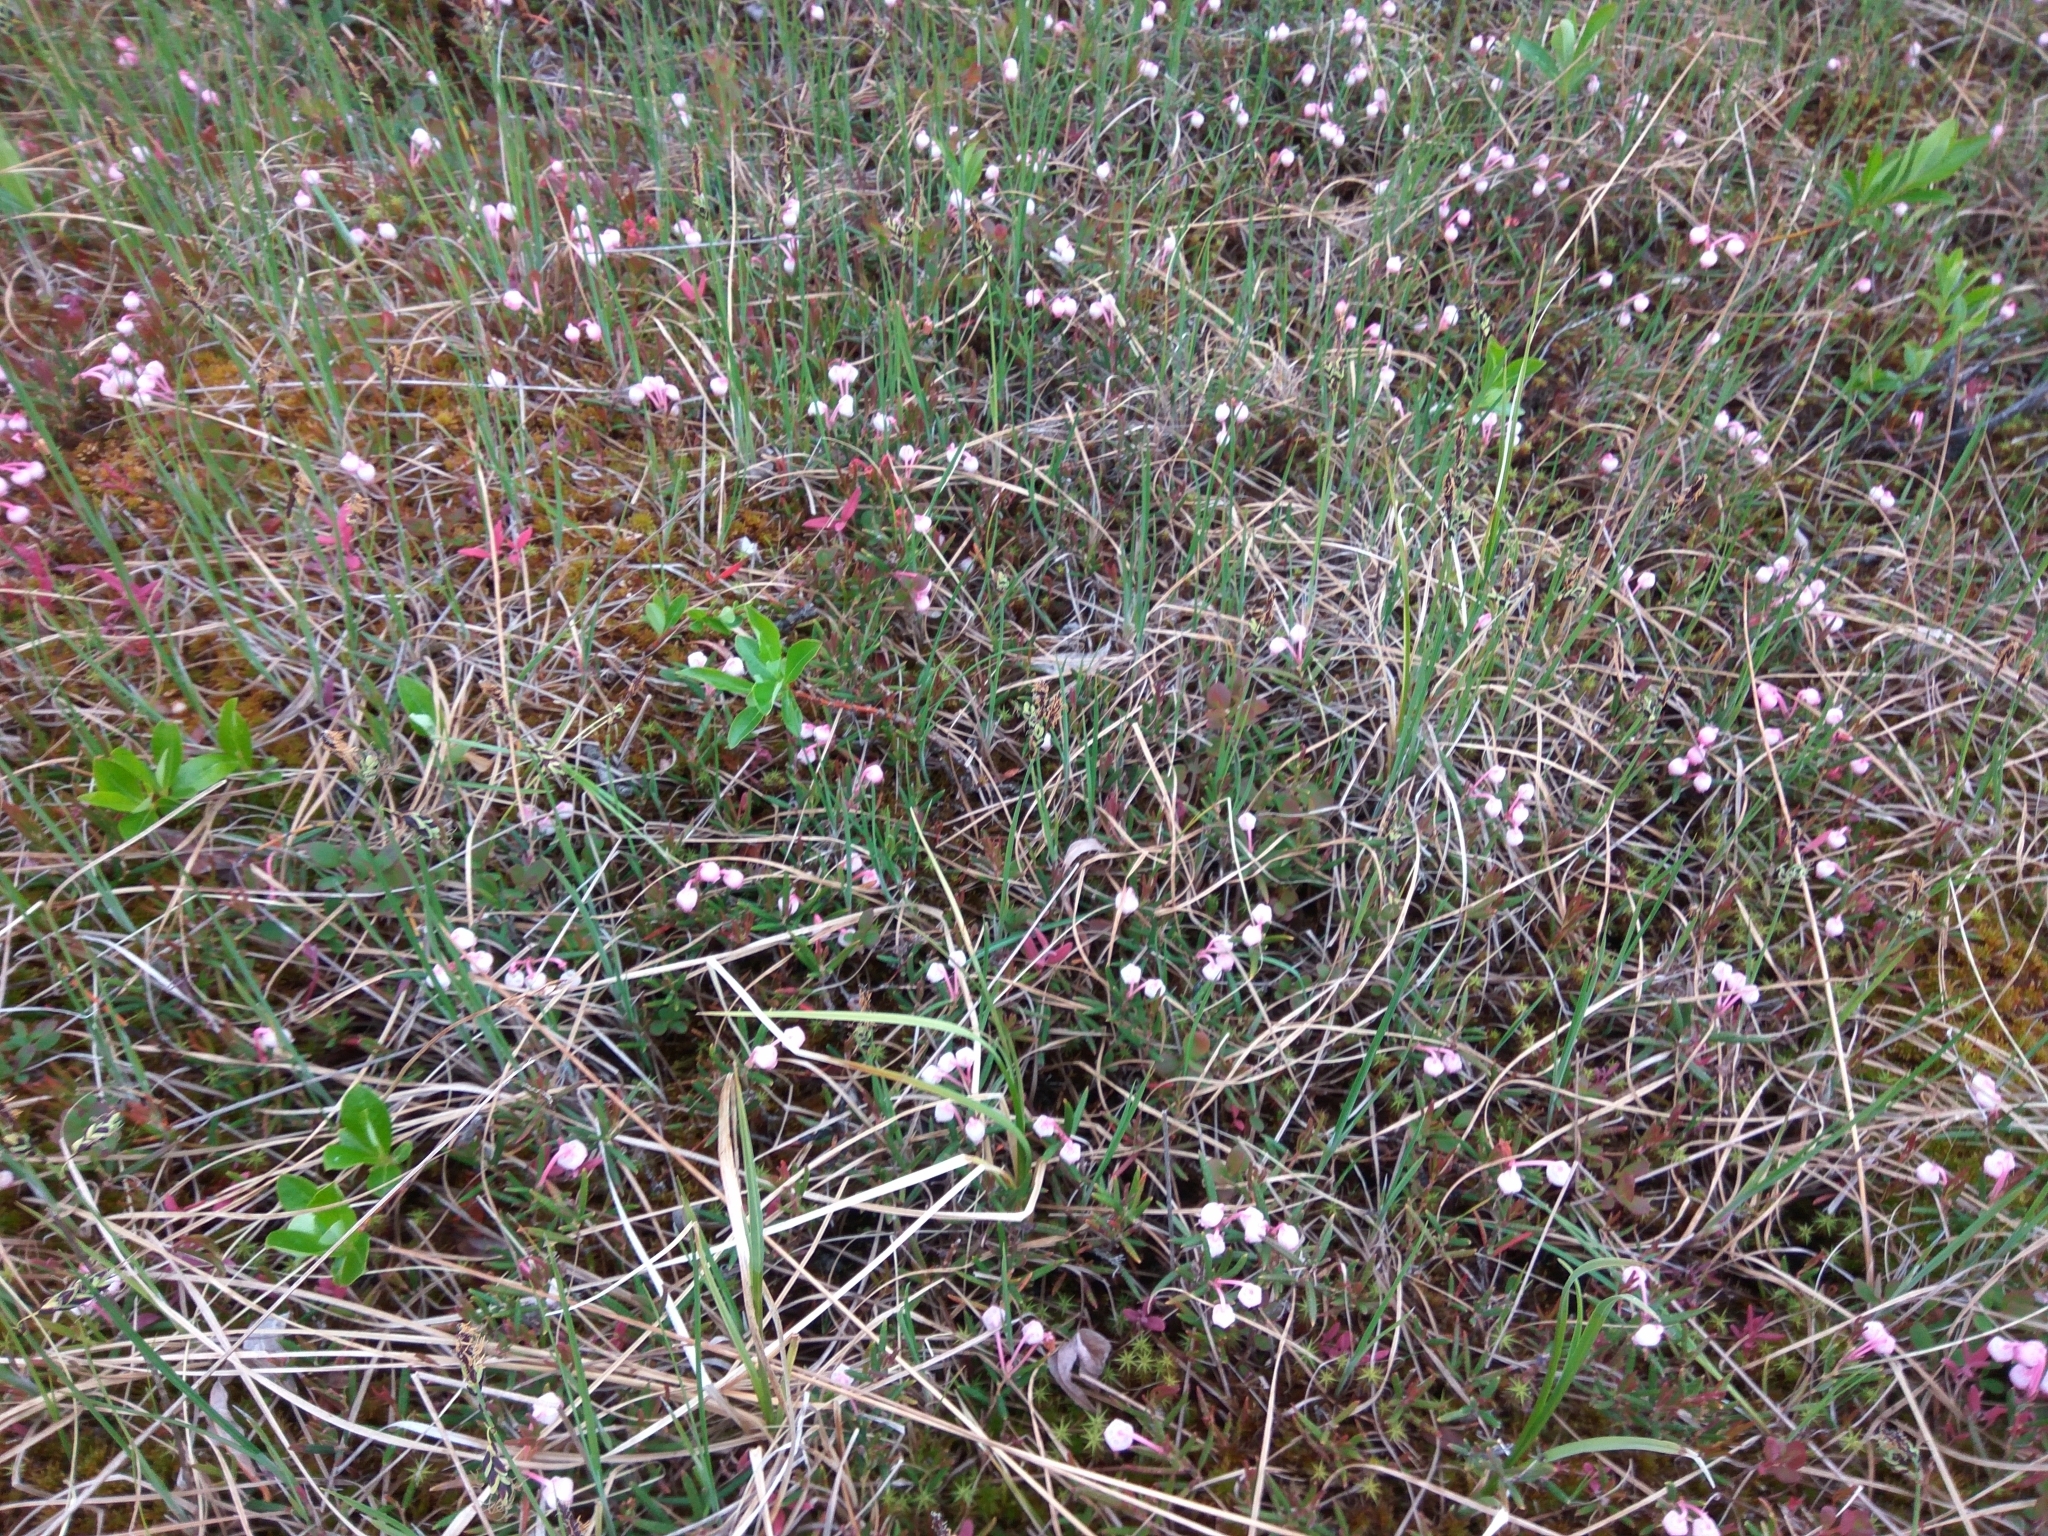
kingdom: Plantae
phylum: Tracheophyta
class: Magnoliopsida
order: Ericales
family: Ericaceae
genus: Andromeda
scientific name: Andromeda polifolia
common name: Bog-rosemary
